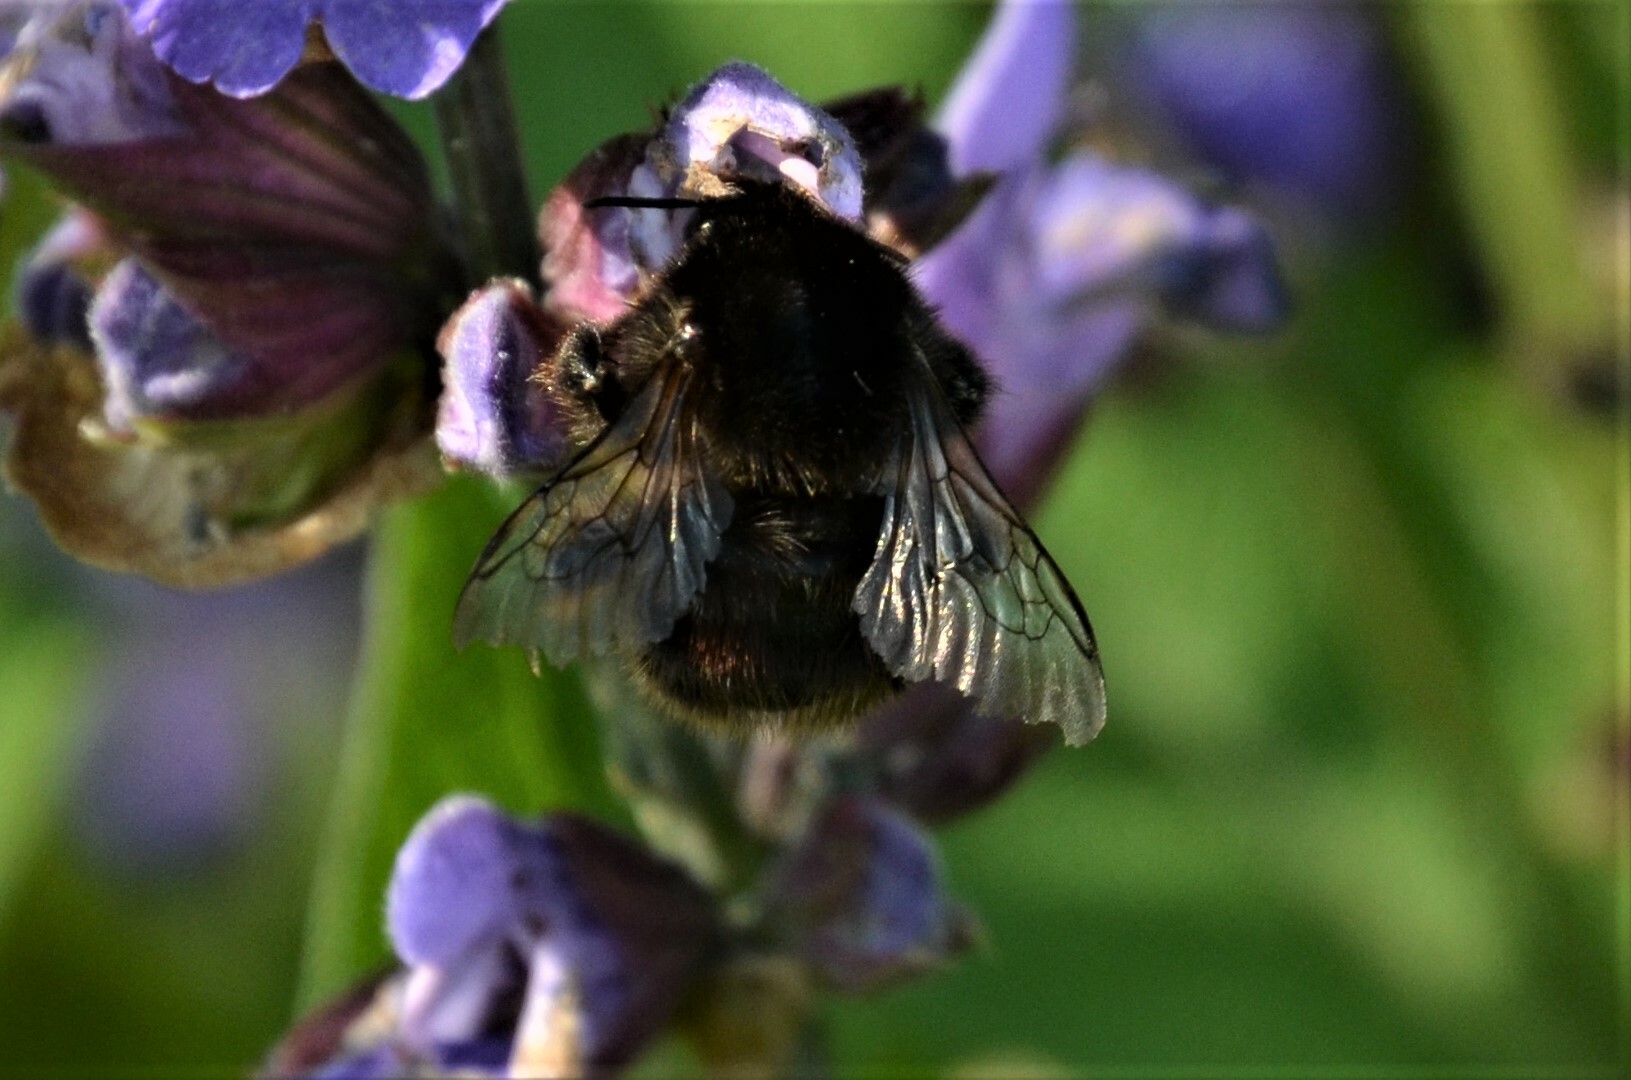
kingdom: Animalia
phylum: Arthropoda
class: Insecta
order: Hymenoptera
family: Apidae
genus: Bombus
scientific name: Bombus humilis
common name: Brown-banded carder-bee
